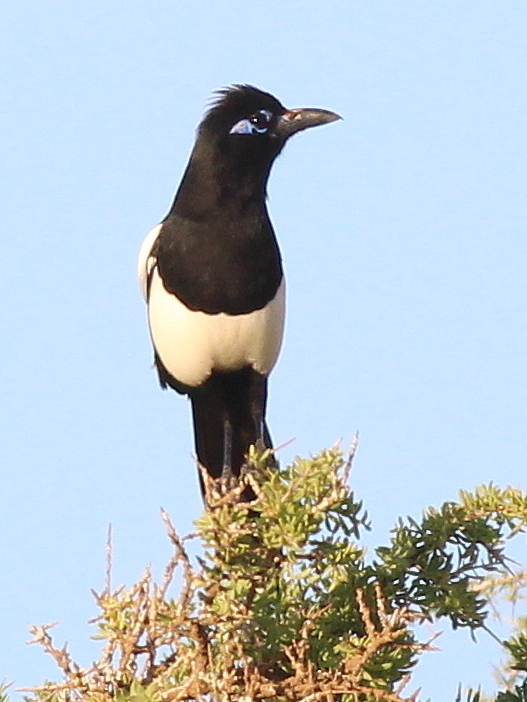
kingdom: Animalia
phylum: Chordata
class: Aves
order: Passeriformes
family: Corvidae
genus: Pica
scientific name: Pica mauritanica
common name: Maghreb magpie
